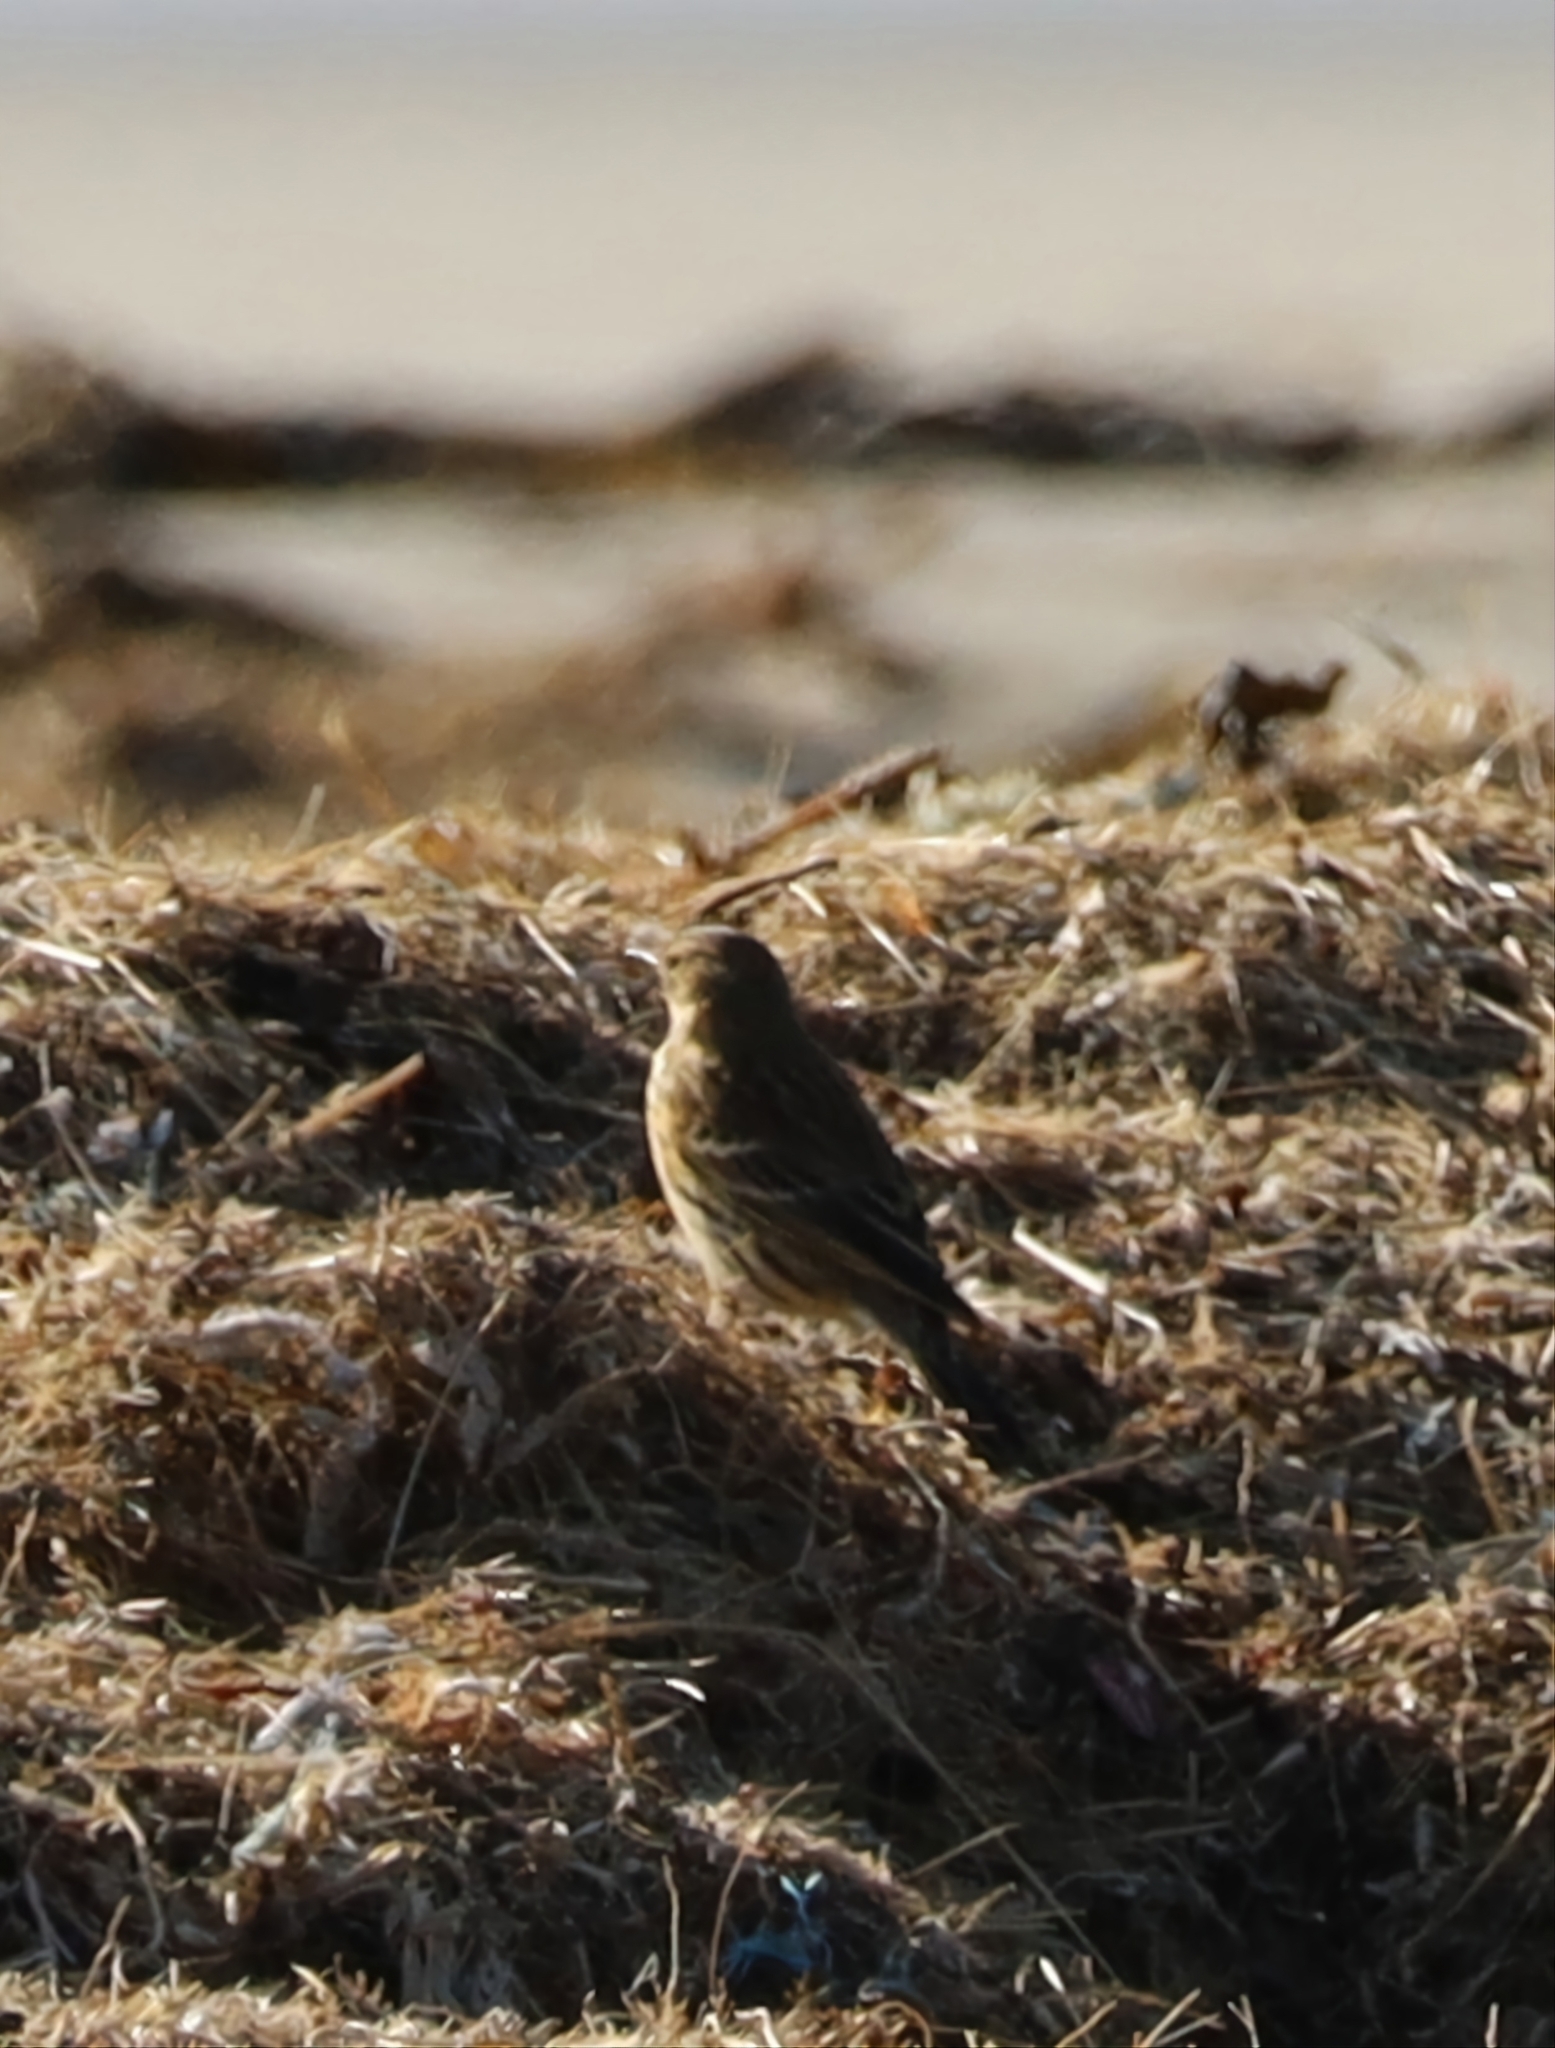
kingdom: Animalia
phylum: Chordata
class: Aves
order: Passeriformes
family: Motacillidae
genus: Anthus
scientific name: Anthus petrosus
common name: Eurasian rock pipit
